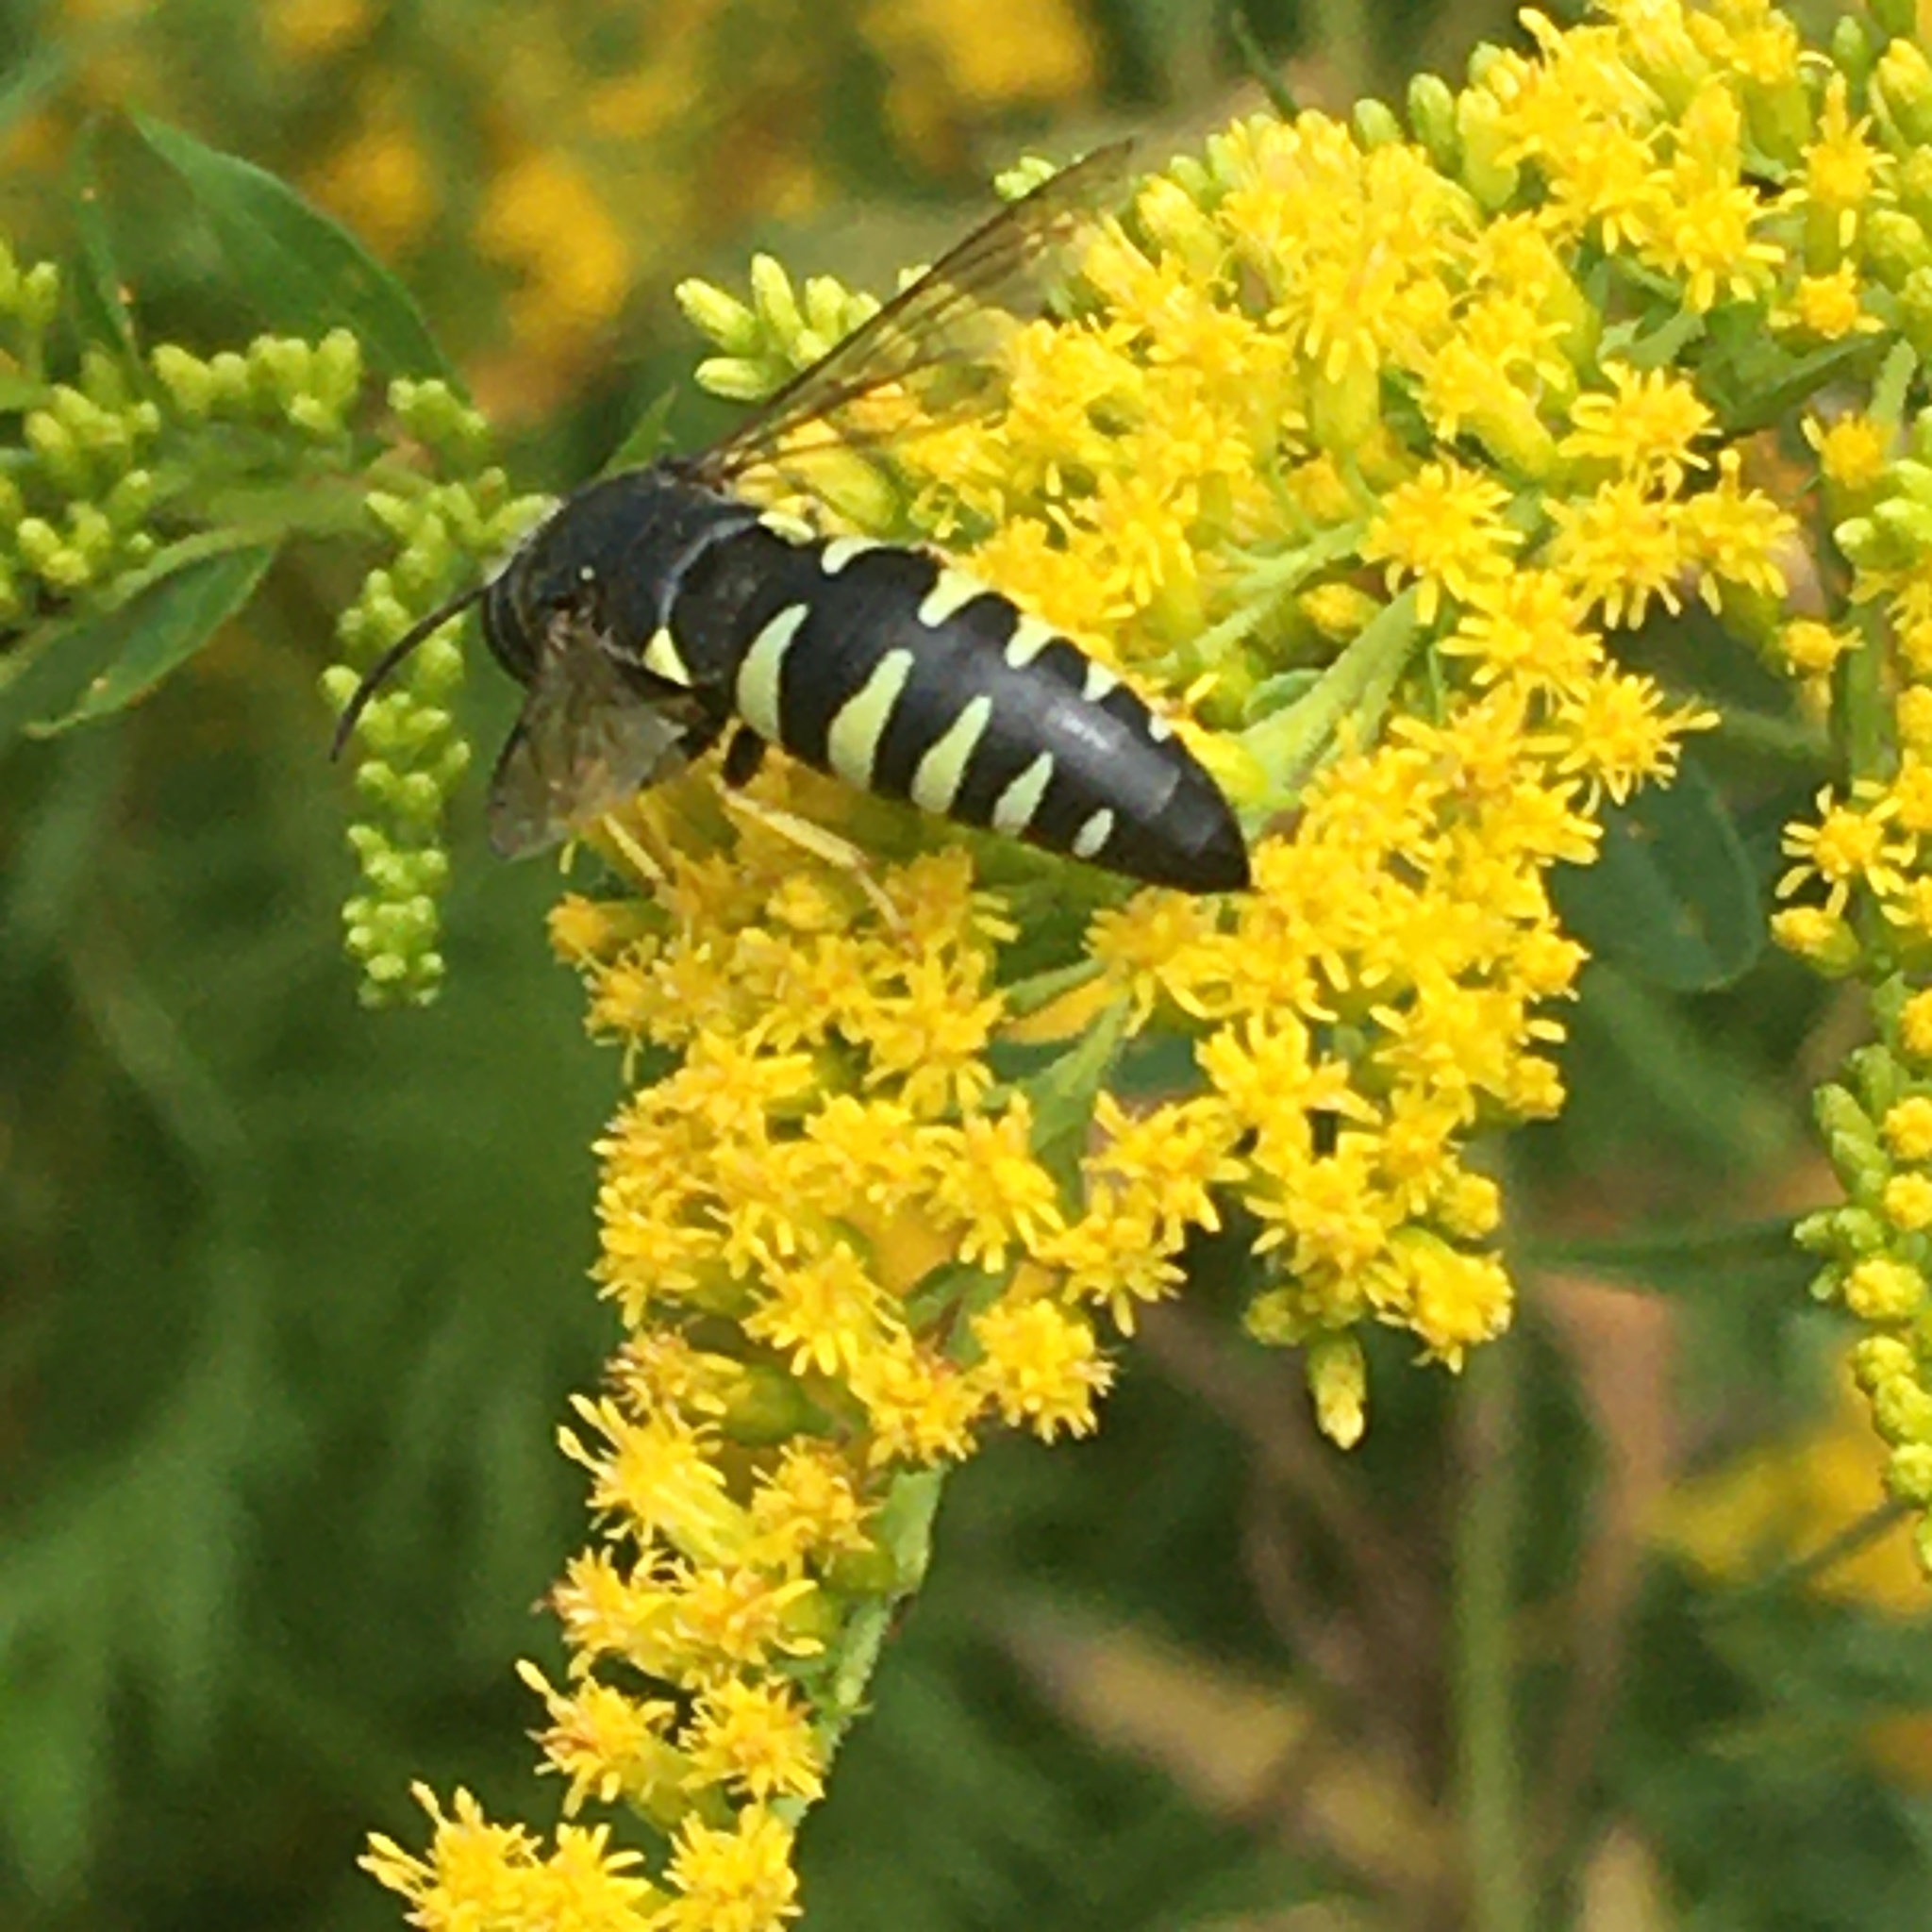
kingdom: Animalia
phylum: Arthropoda
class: Insecta
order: Hymenoptera
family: Crabronidae
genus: Bicyrtes
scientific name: Bicyrtes quadrifasciatus
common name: Four-banded stink bug hunter wasp
